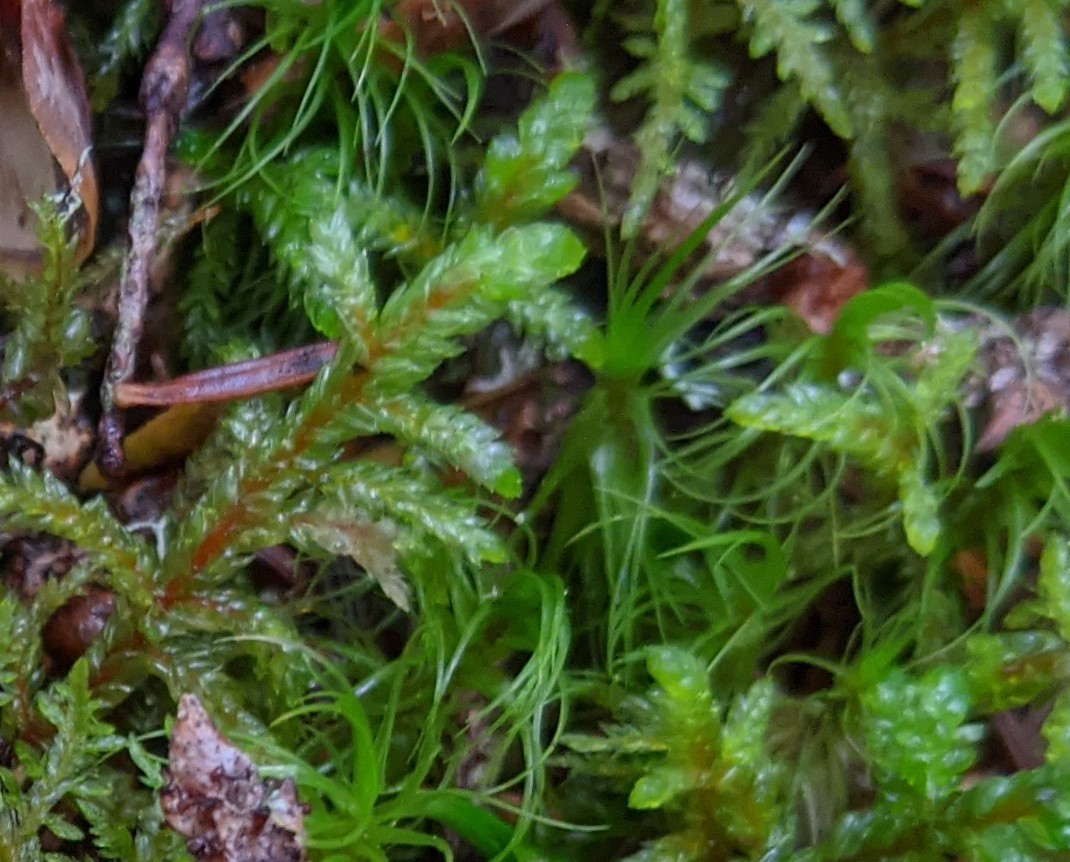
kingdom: Plantae
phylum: Bryophyta
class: Bryopsida
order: Hypnales
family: Hylocomiaceae
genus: Pleurozium
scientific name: Pleurozium schreberi
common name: Red-stemmed feather moss
